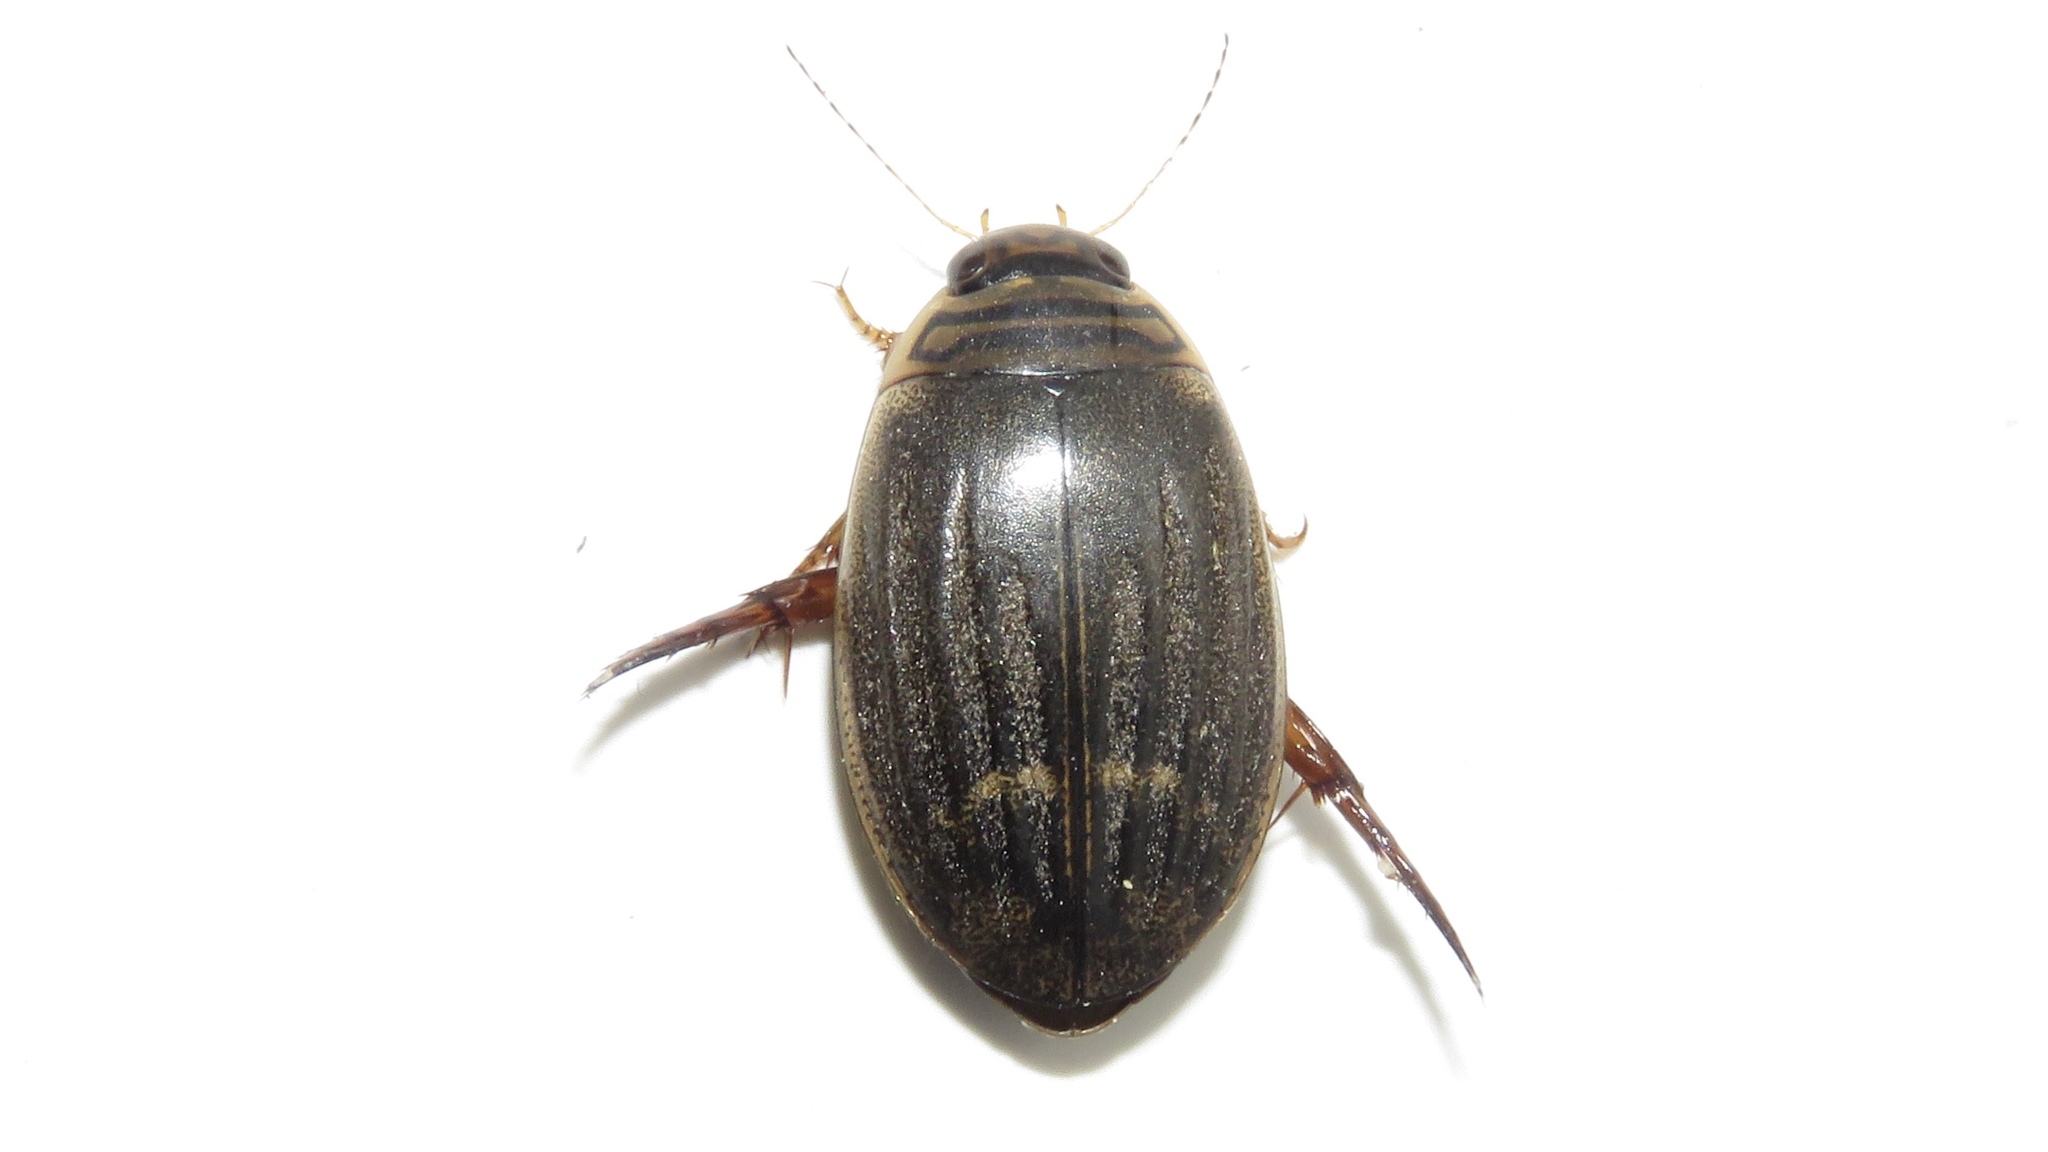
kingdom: Animalia
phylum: Arthropoda
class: Insecta
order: Coleoptera
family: Dytiscidae
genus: Acilius
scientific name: Acilius semisulcatus
